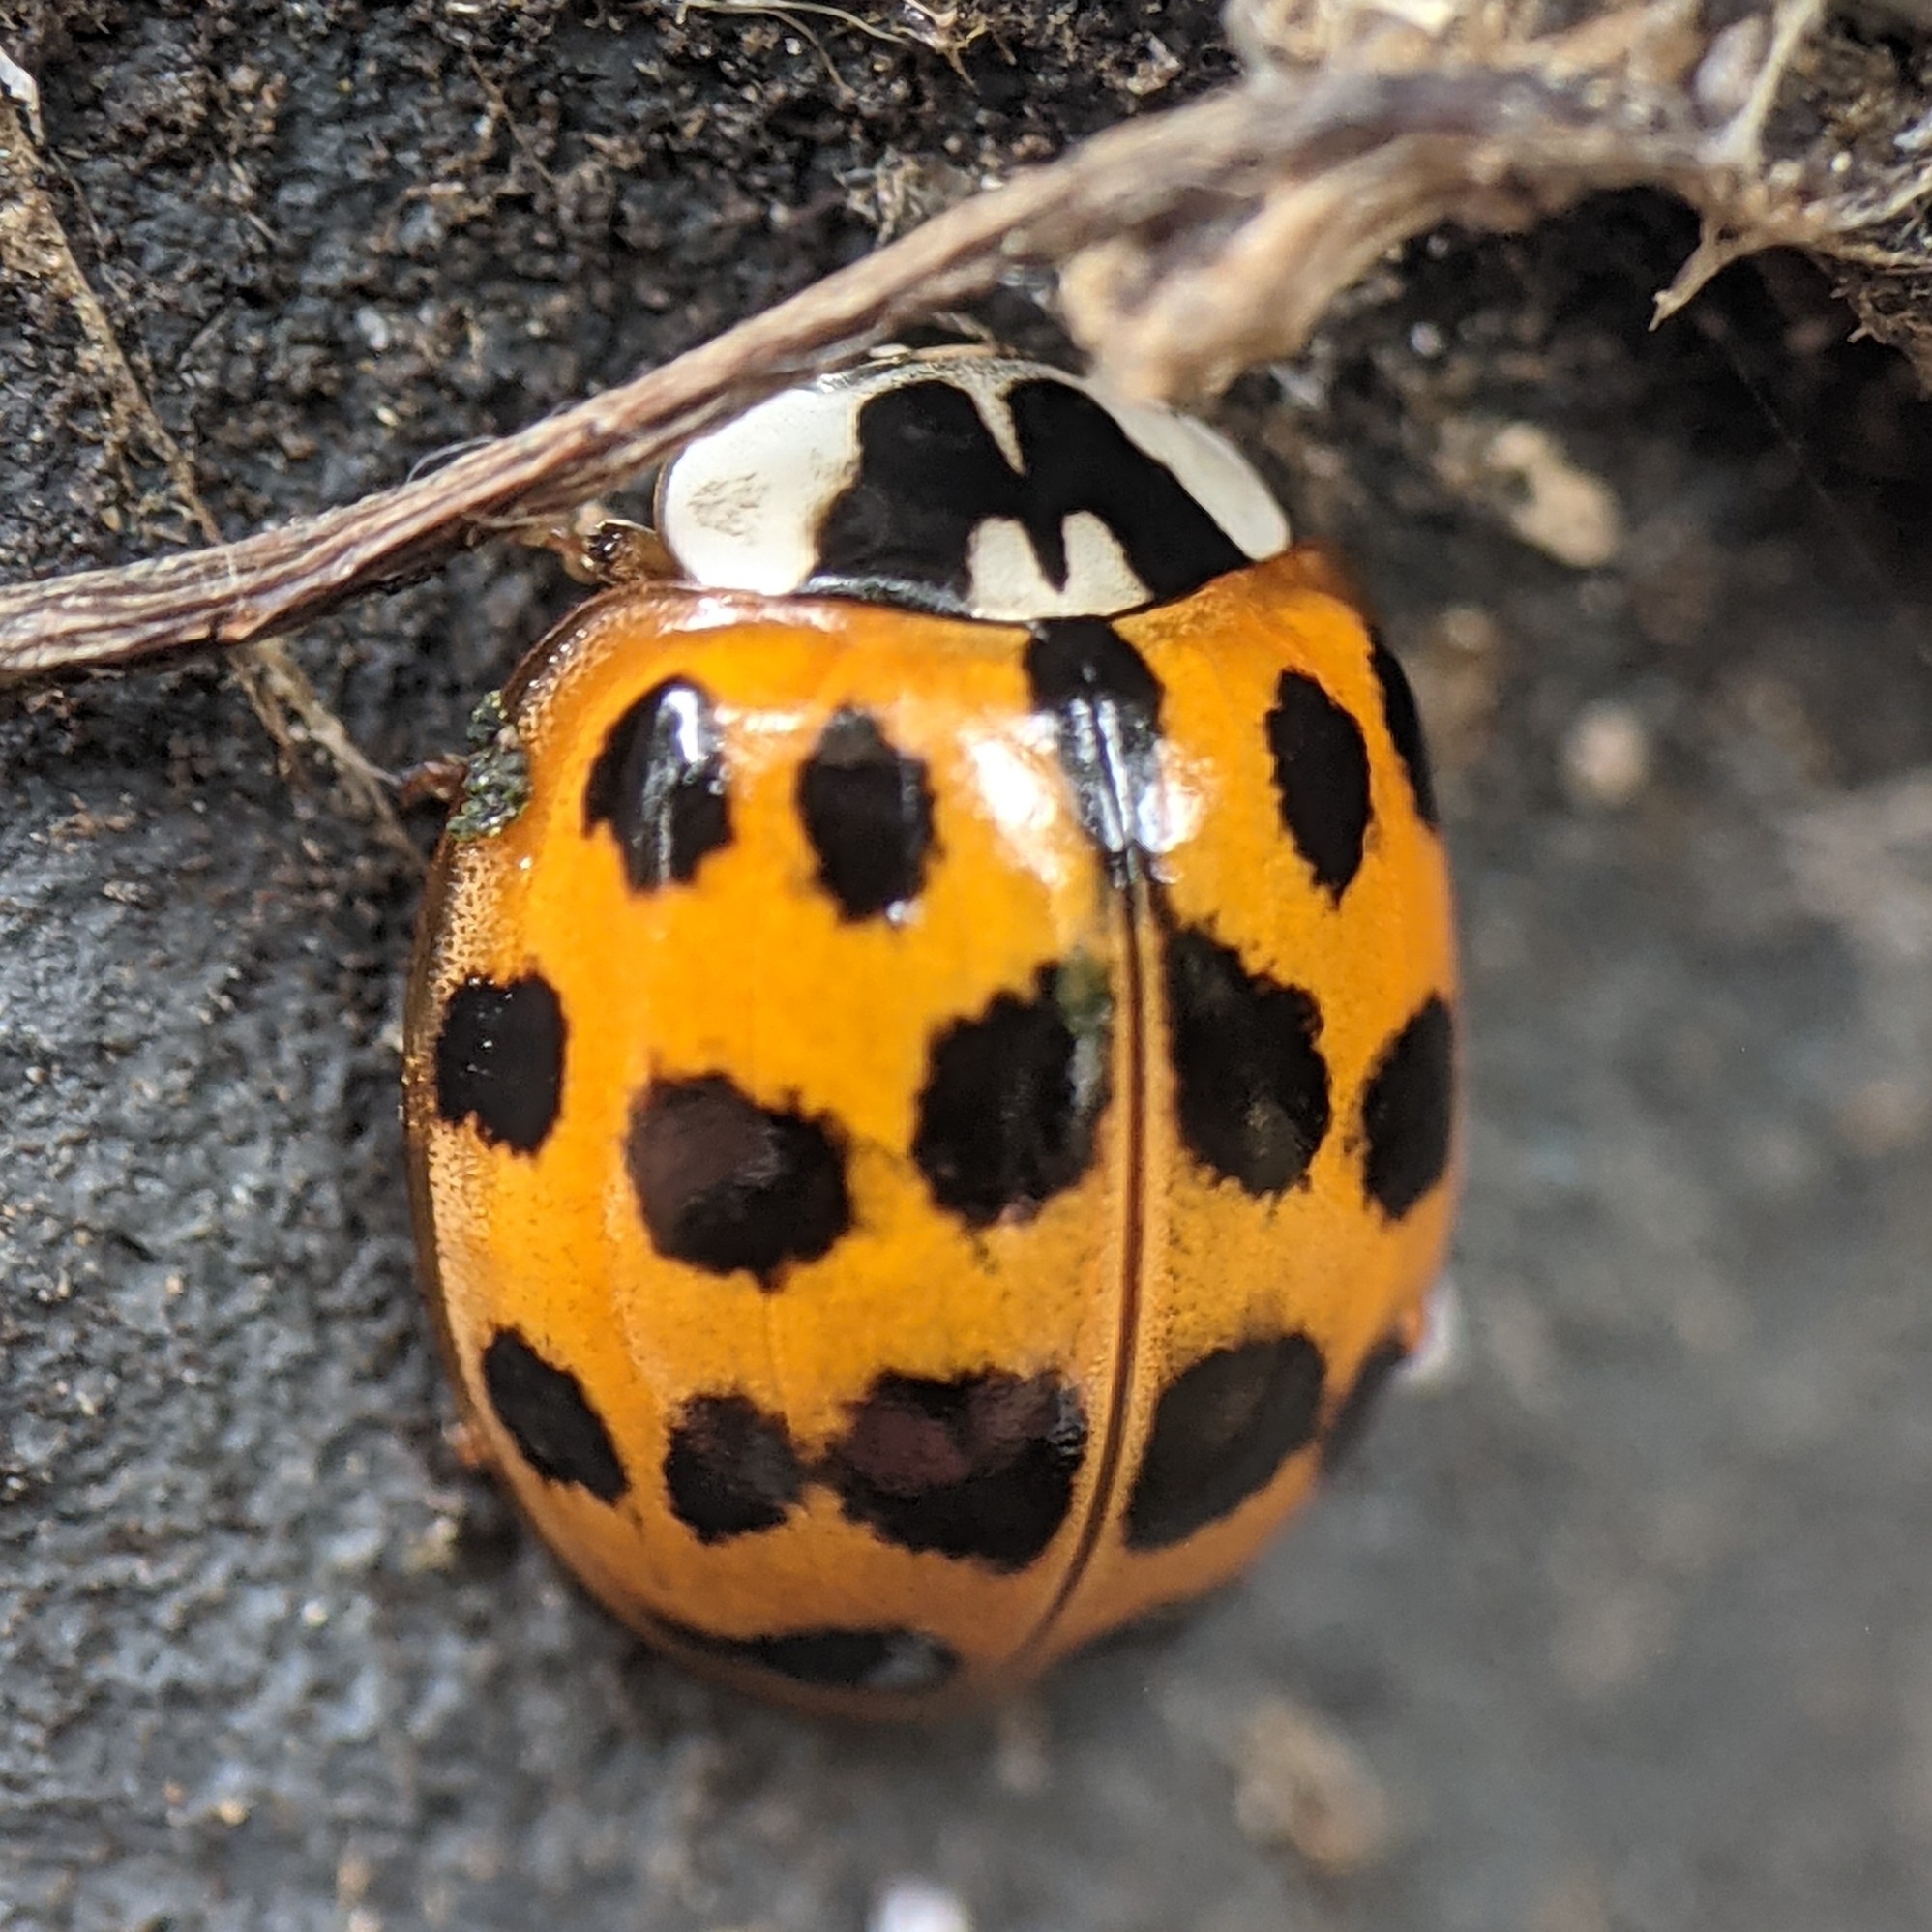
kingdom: Animalia
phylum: Arthropoda
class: Insecta
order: Coleoptera
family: Coccinellidae
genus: Harmonia
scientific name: Harmonia axyridis
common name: Harlequin ladybird
